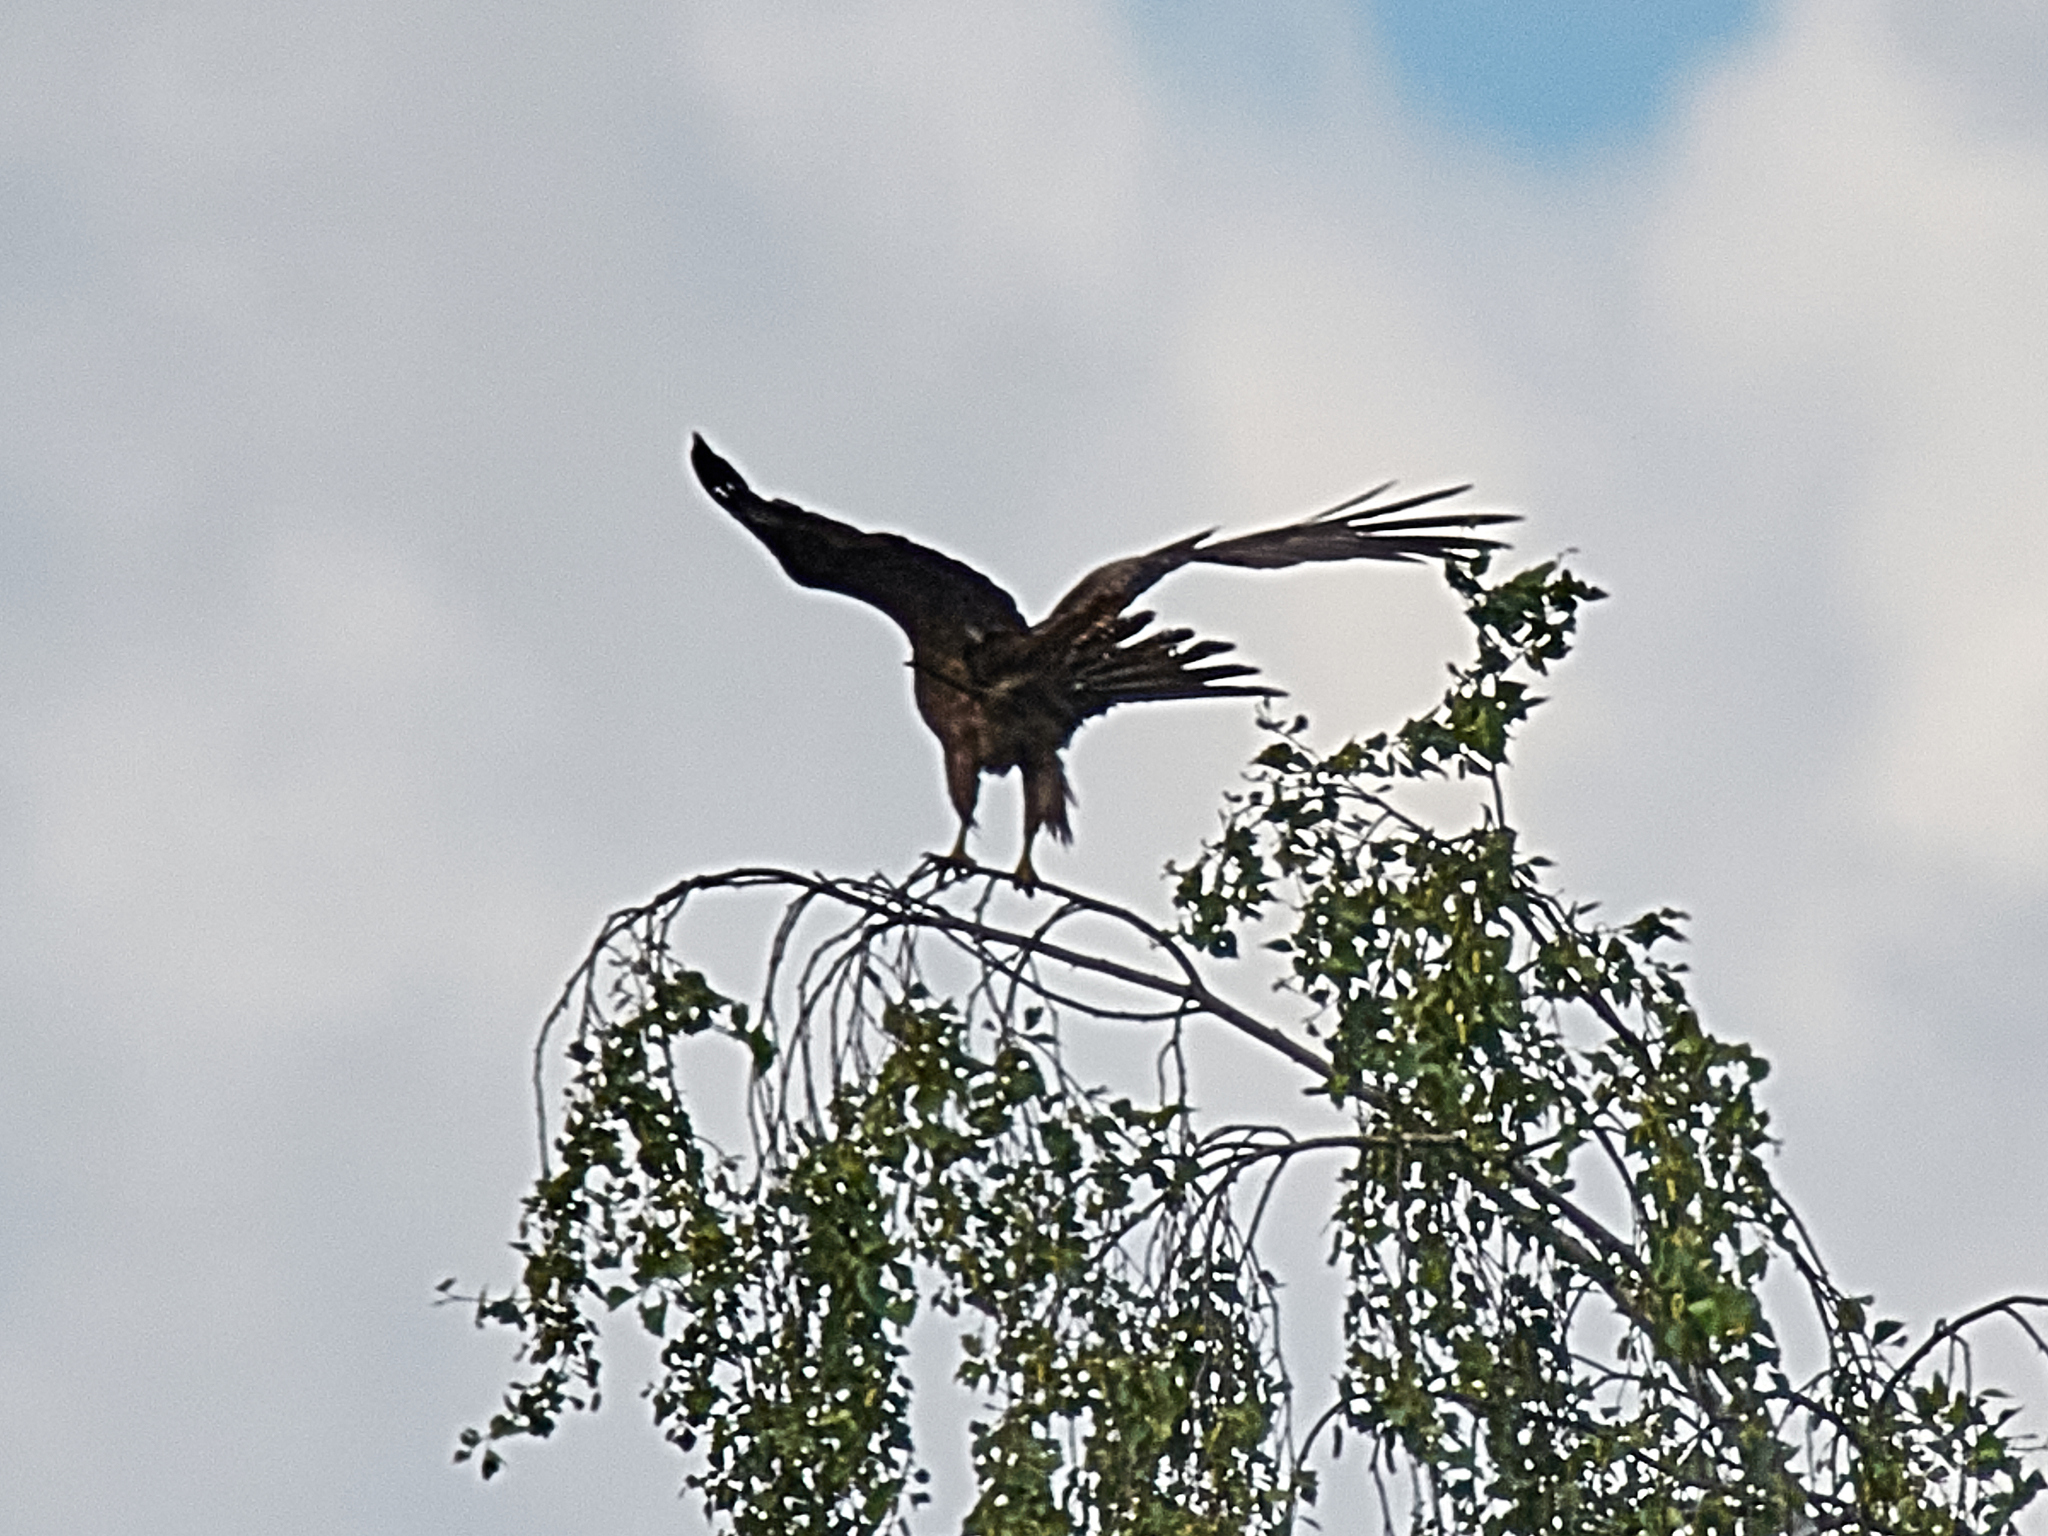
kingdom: Animalia
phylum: Chordata
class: Aves
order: Accipitriformes
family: Accipitridae
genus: Milvus
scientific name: Milvus migrans
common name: Black kite
